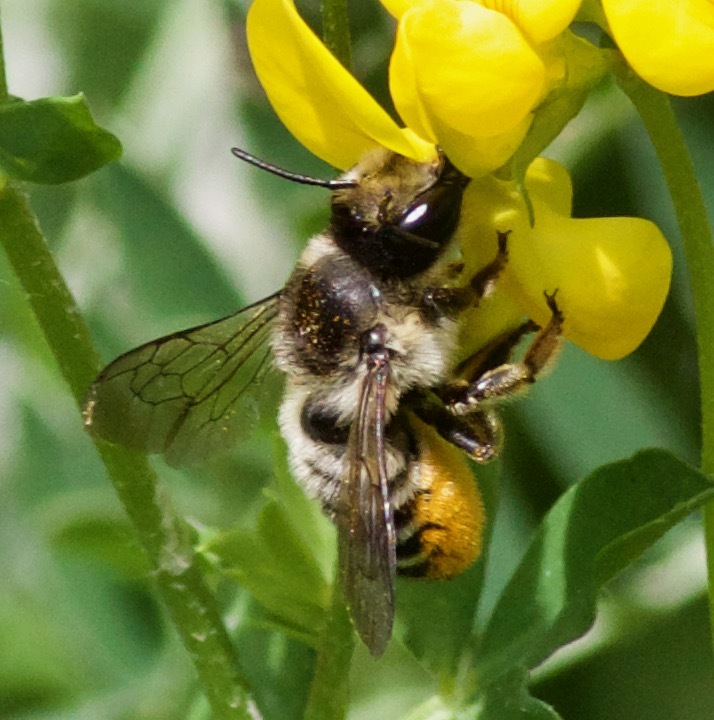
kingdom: Animalia
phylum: Arthropoda
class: Insecta
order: Hymenoptera
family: Megachilidae
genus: Megachile
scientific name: Megachile inermis
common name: Unarmed leafcutter bee
